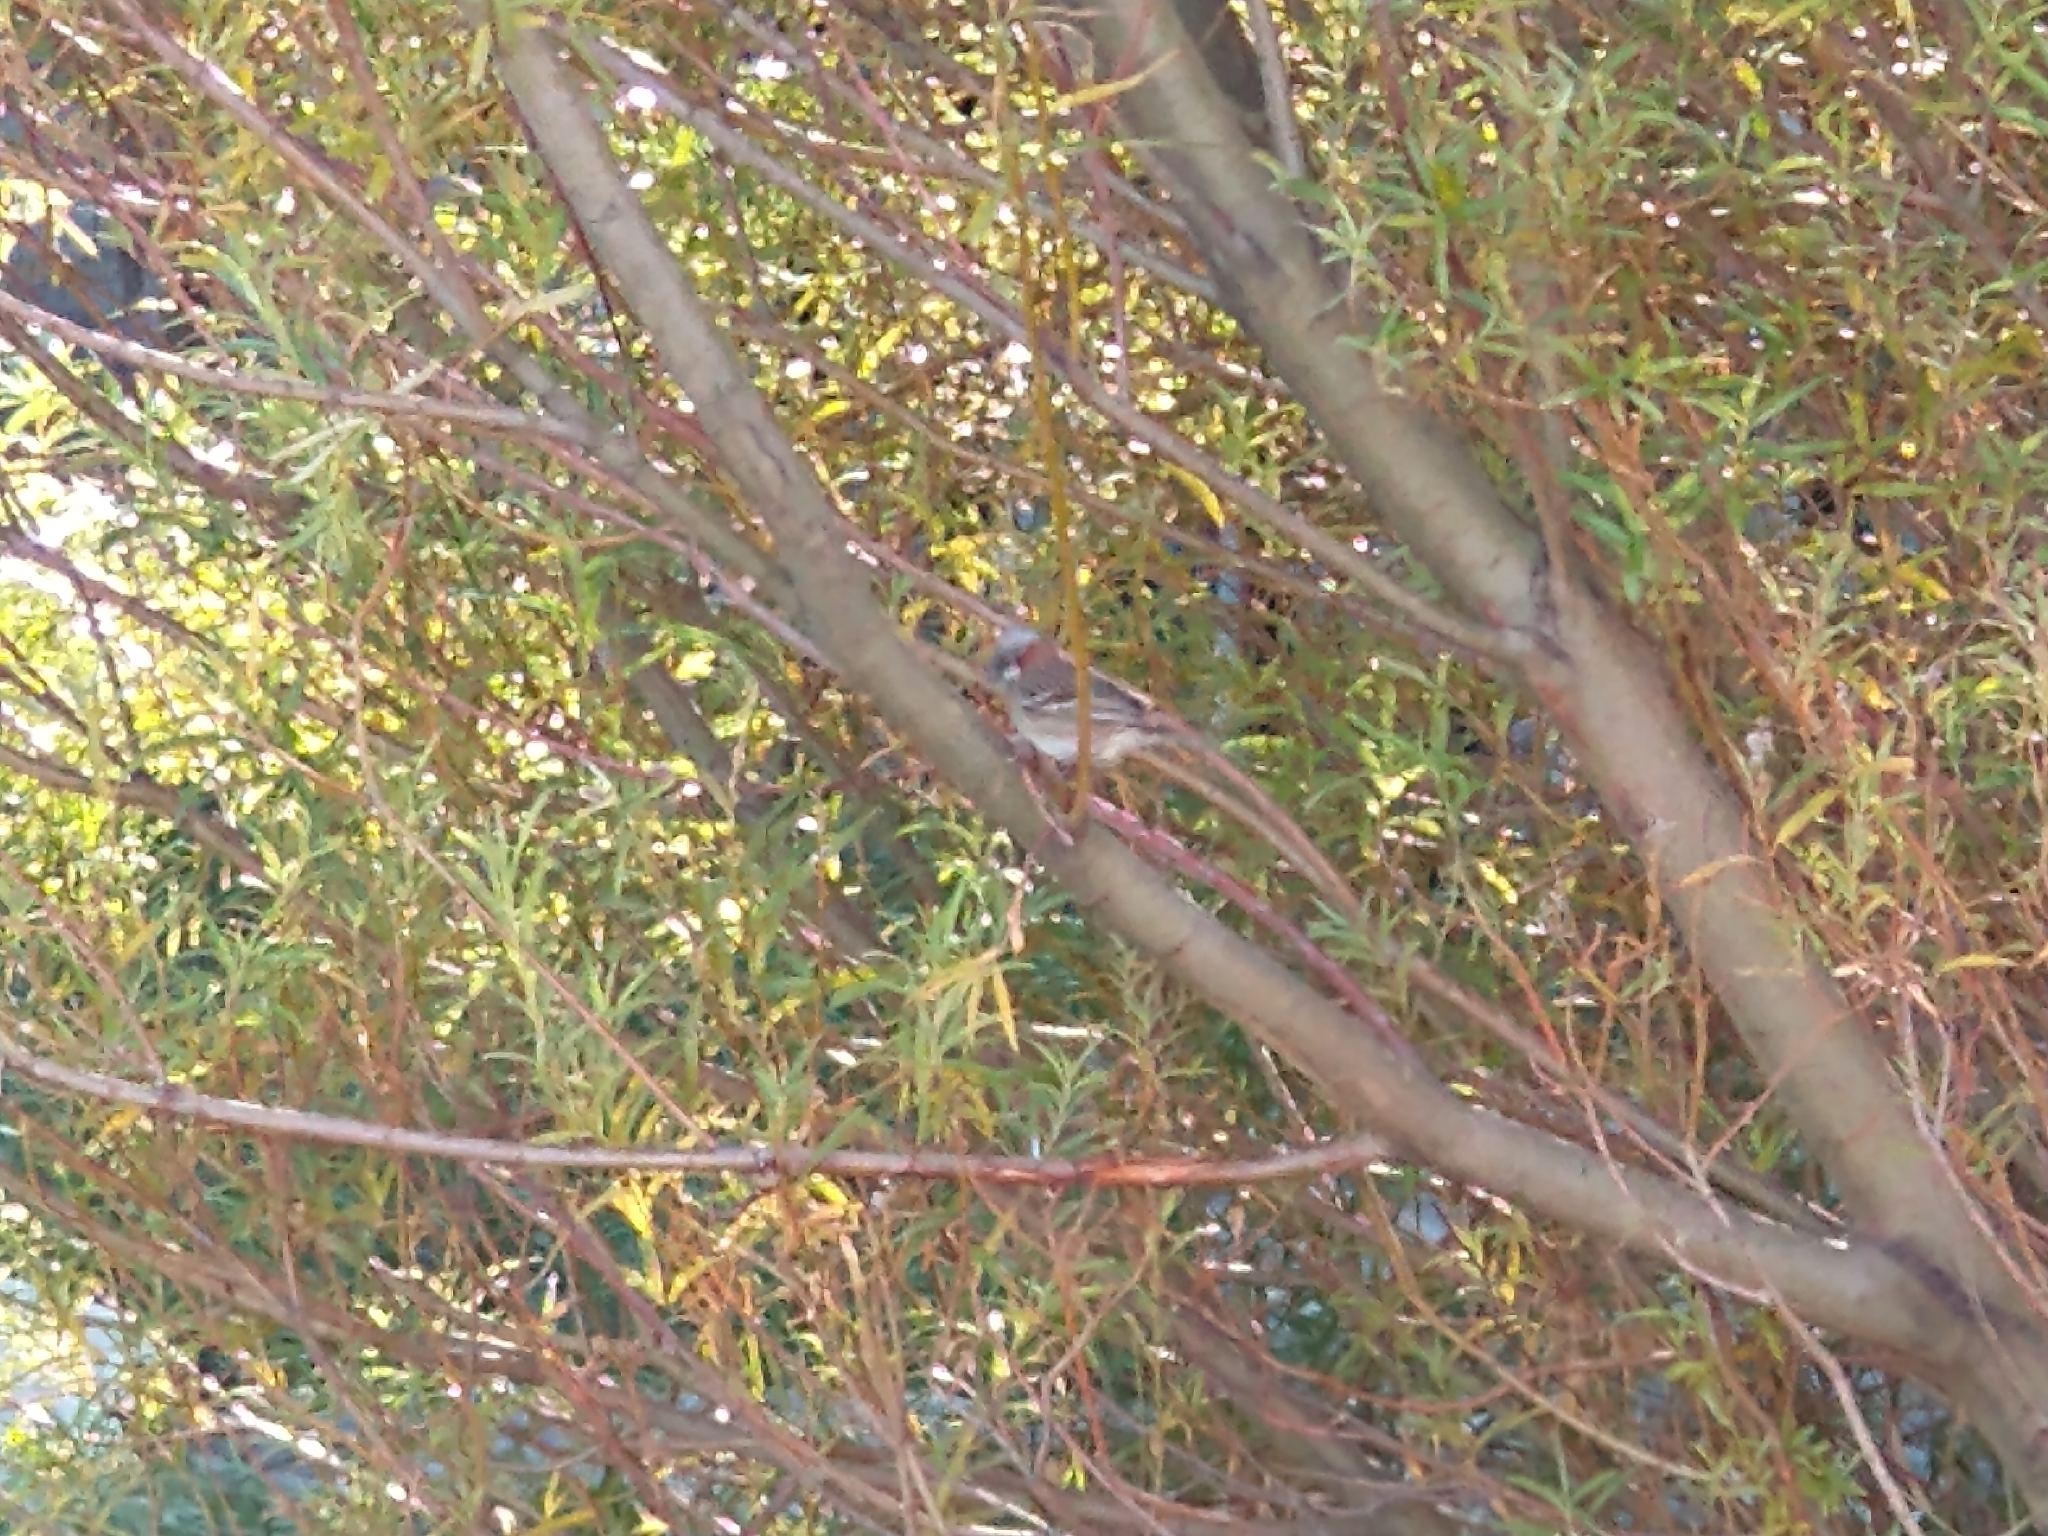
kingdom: Animalia
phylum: Chordata
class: Aves
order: Passeriformes
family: Passerellidae
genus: Zonotrichia
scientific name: Zonotrichia capensis
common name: Rufous-collared sparrow
